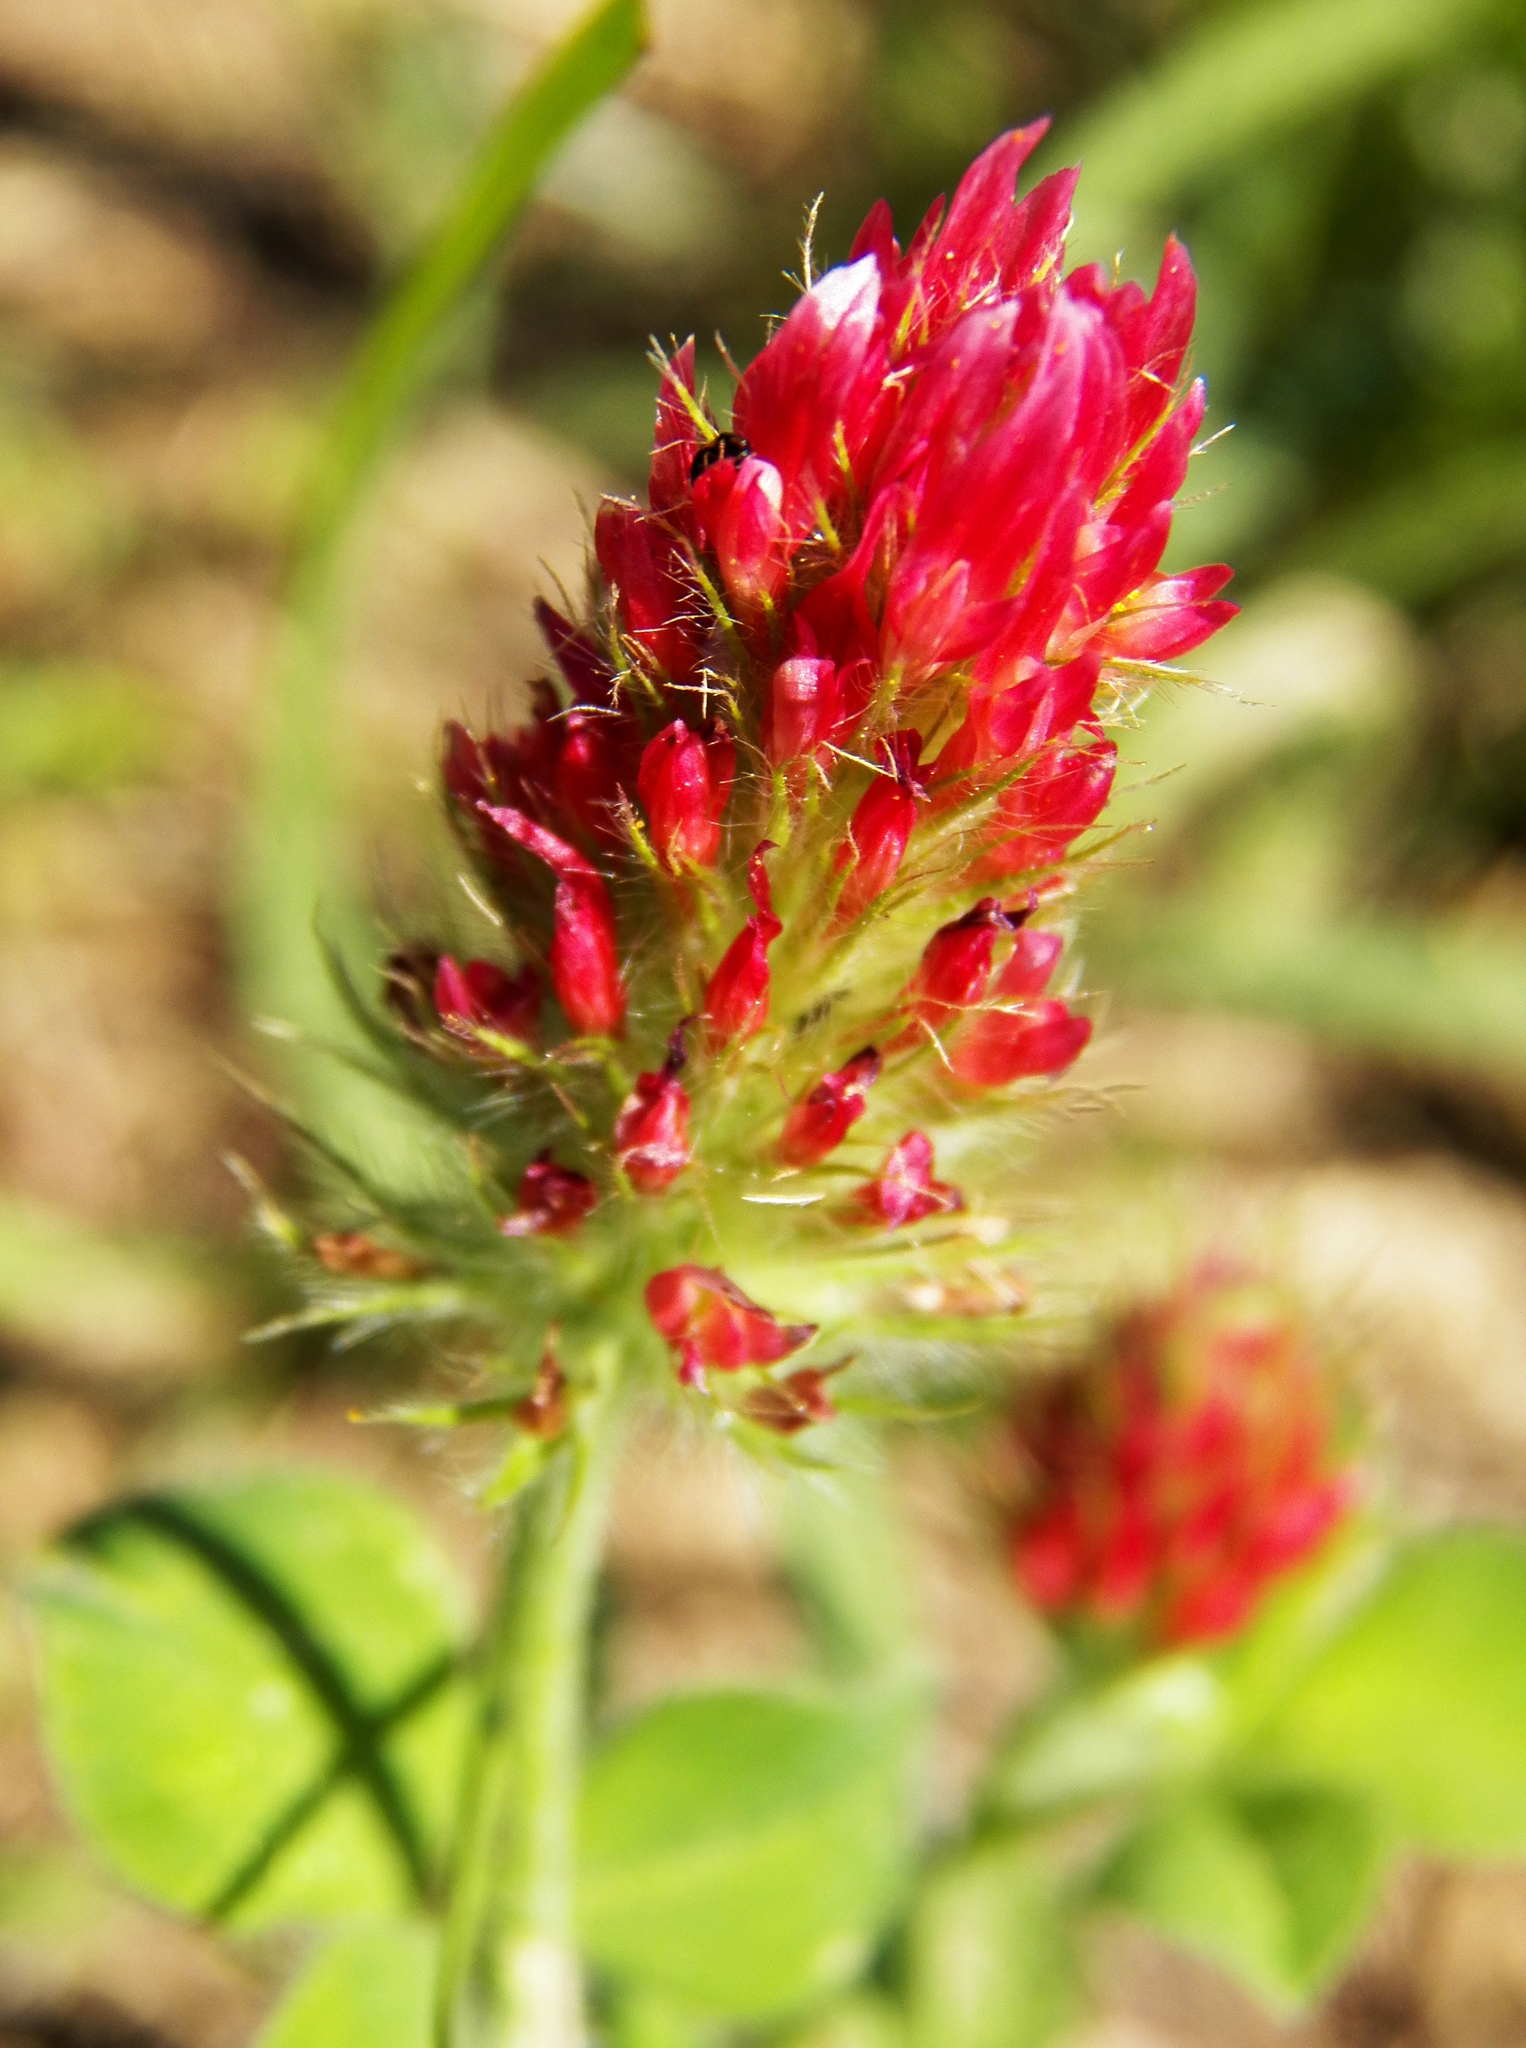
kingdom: Plantae
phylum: Tracheophyta
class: Magnoliopsida
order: Fabales
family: Fabaceae
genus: Trifolium
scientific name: Trifolium incarnatum
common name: Crimson clover
